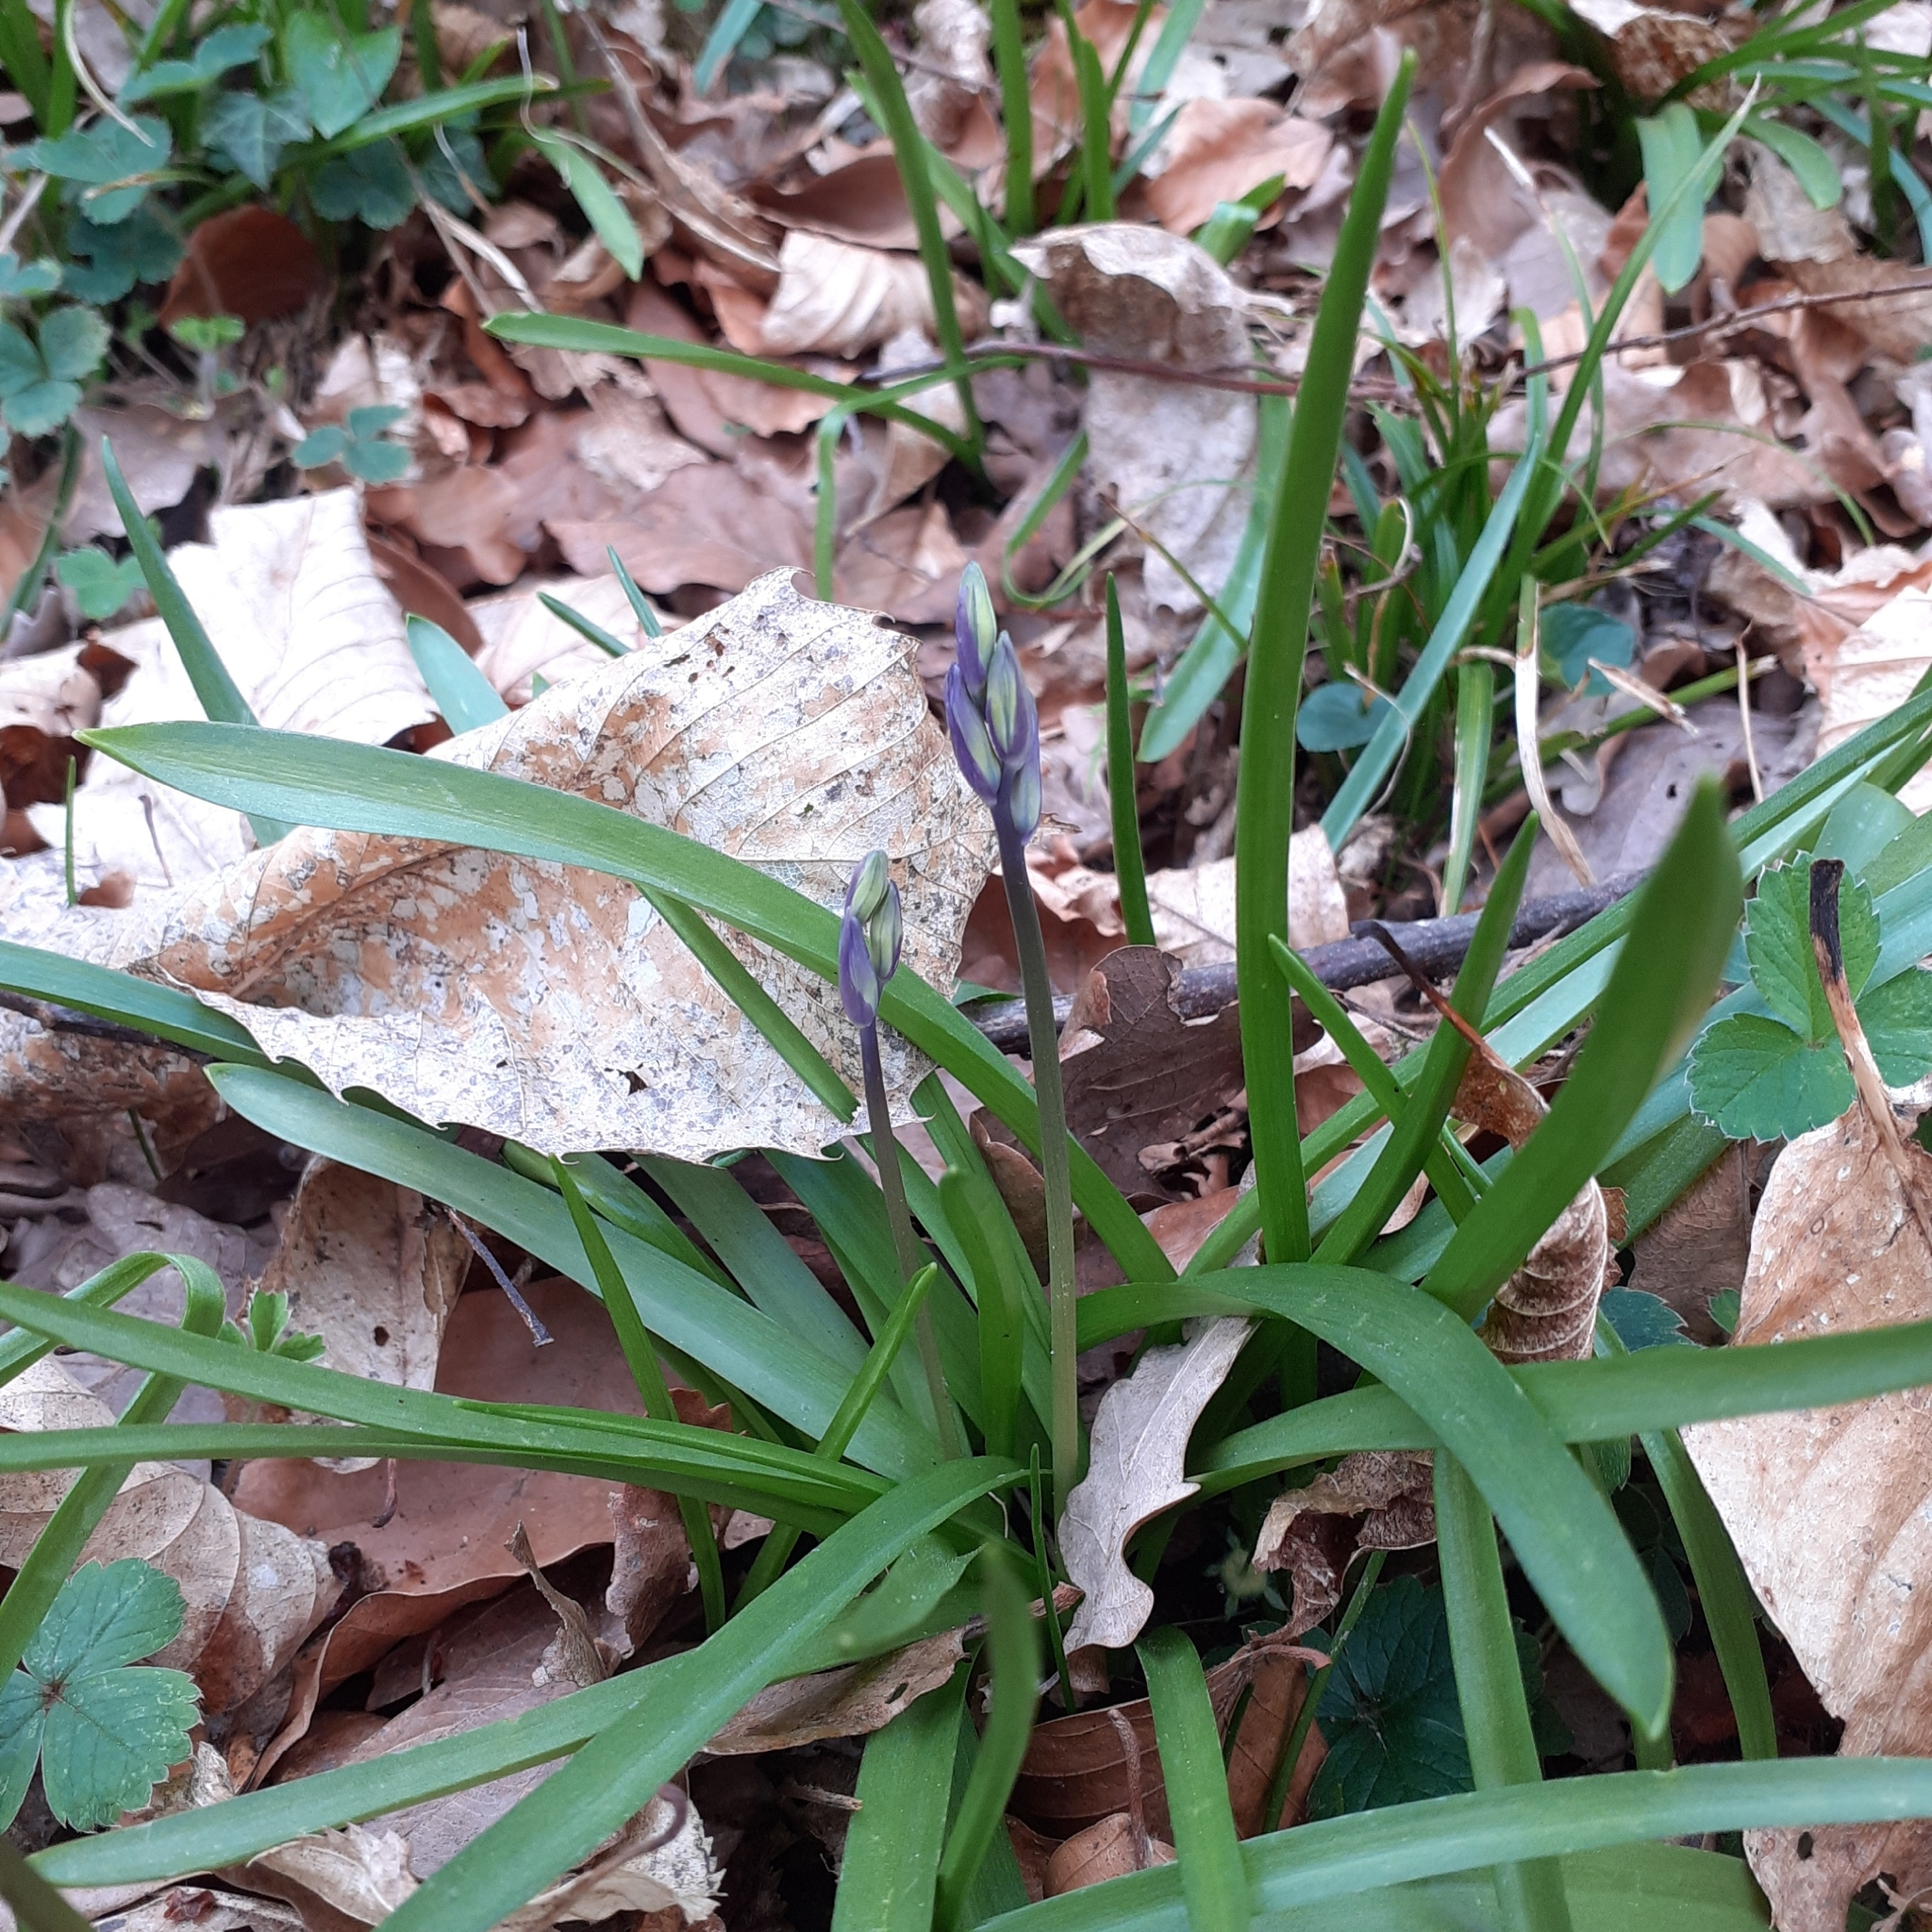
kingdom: Plantae
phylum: Tracheophyta
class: Liliopsida
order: Asparagales
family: Asparagaceae
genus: Hyacinthoides
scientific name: Hyacinthoides non-scripta
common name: Bluebell
